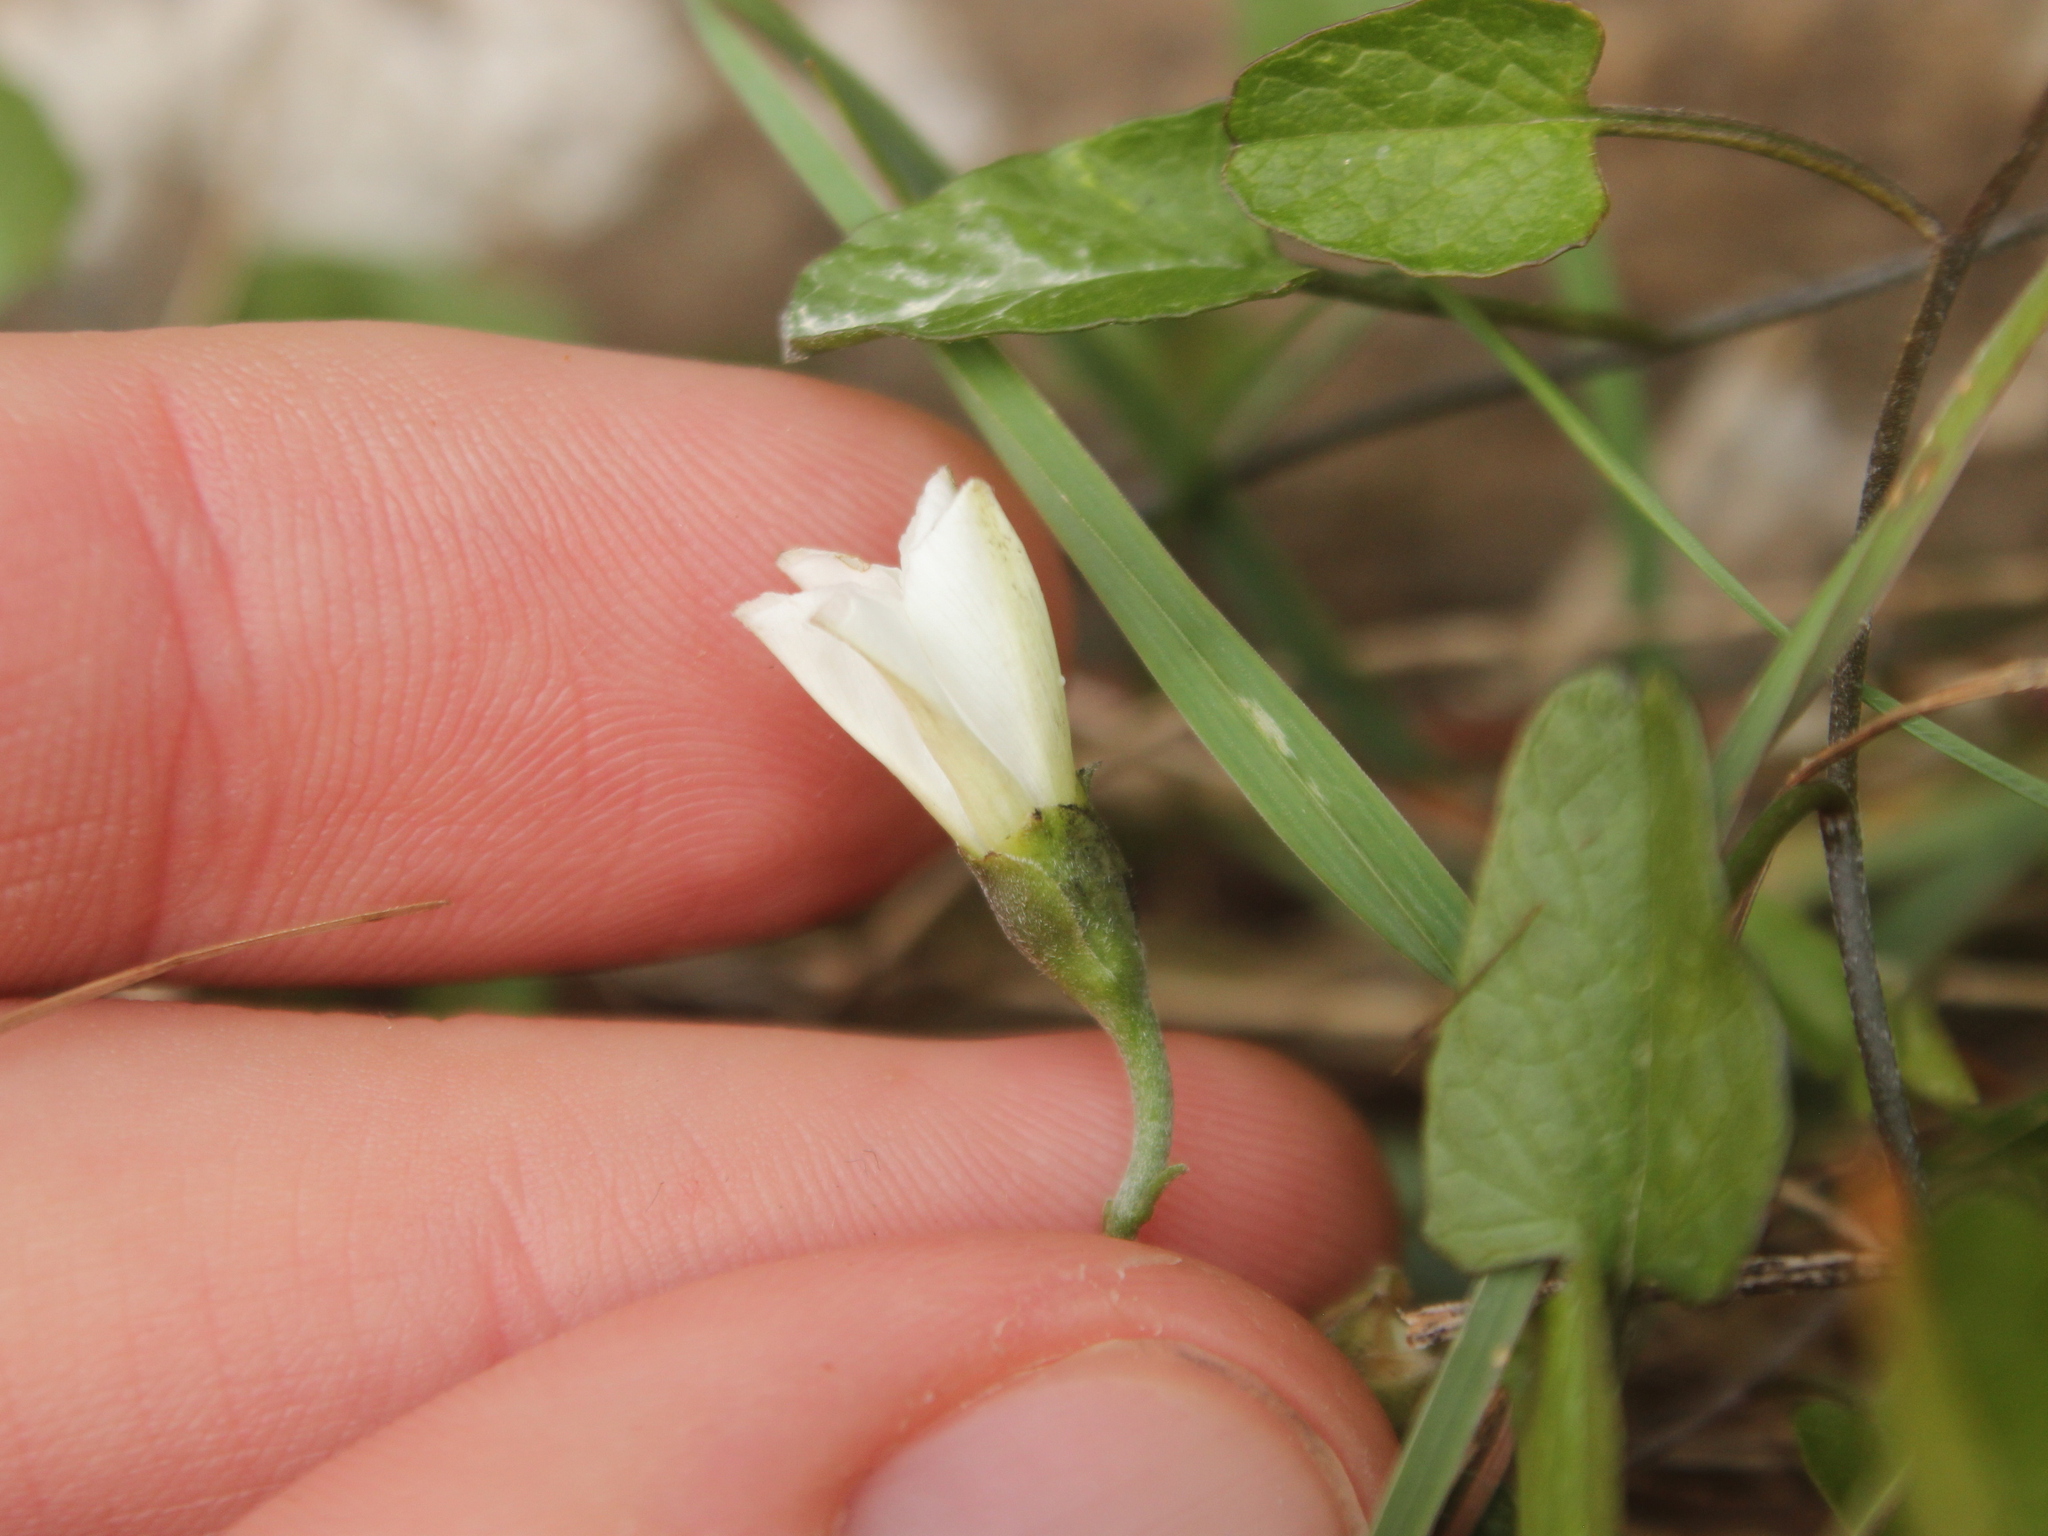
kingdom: Plantae
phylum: Tracheophyta
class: Magnoliopsida
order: Solanales
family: Convolvulaceae
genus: Convolvulus
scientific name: Convolvulus waitaha
